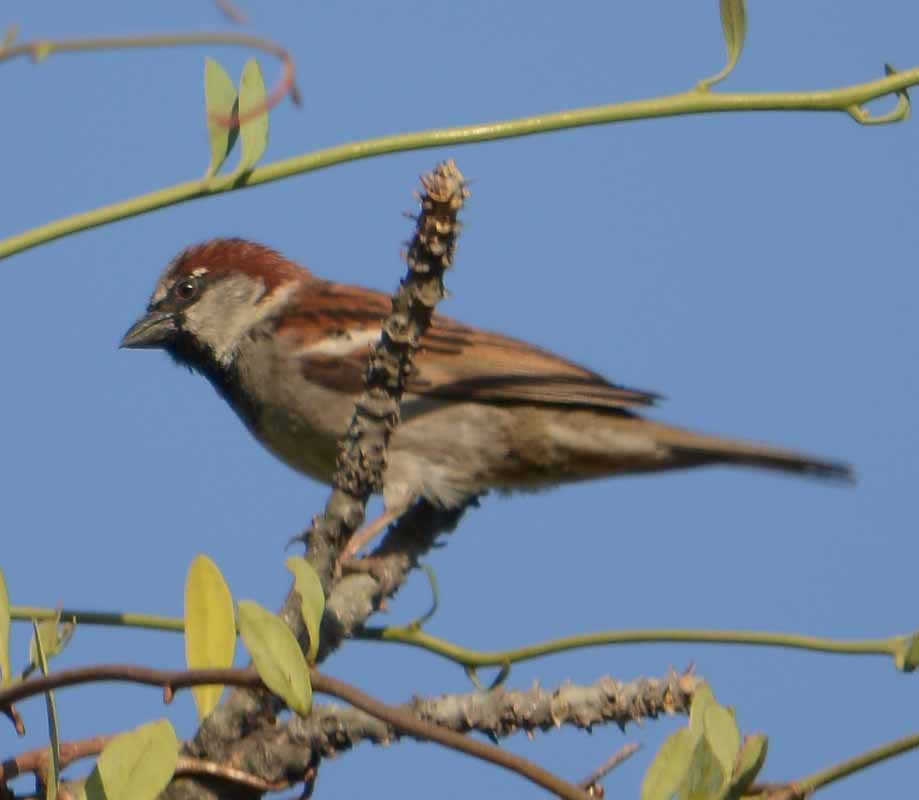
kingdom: Animalia
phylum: Chordata
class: Aves
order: Passeriformes
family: Passeridae
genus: Passer
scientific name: Passer domesticus
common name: House sparrow
